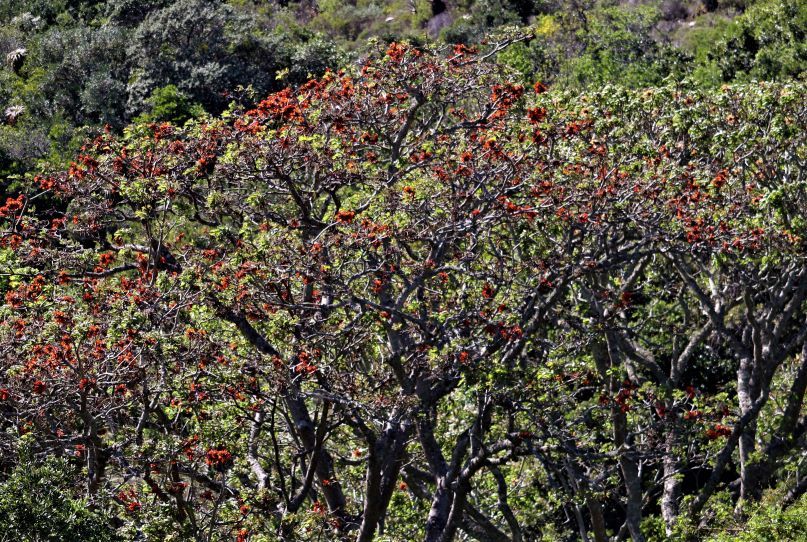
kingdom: Plantae
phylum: Tracheophyta
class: Magnoliopsida
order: Fabales
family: Fabaceae
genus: Erythrina
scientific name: Erythrina caffra
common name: Coast coral tree
